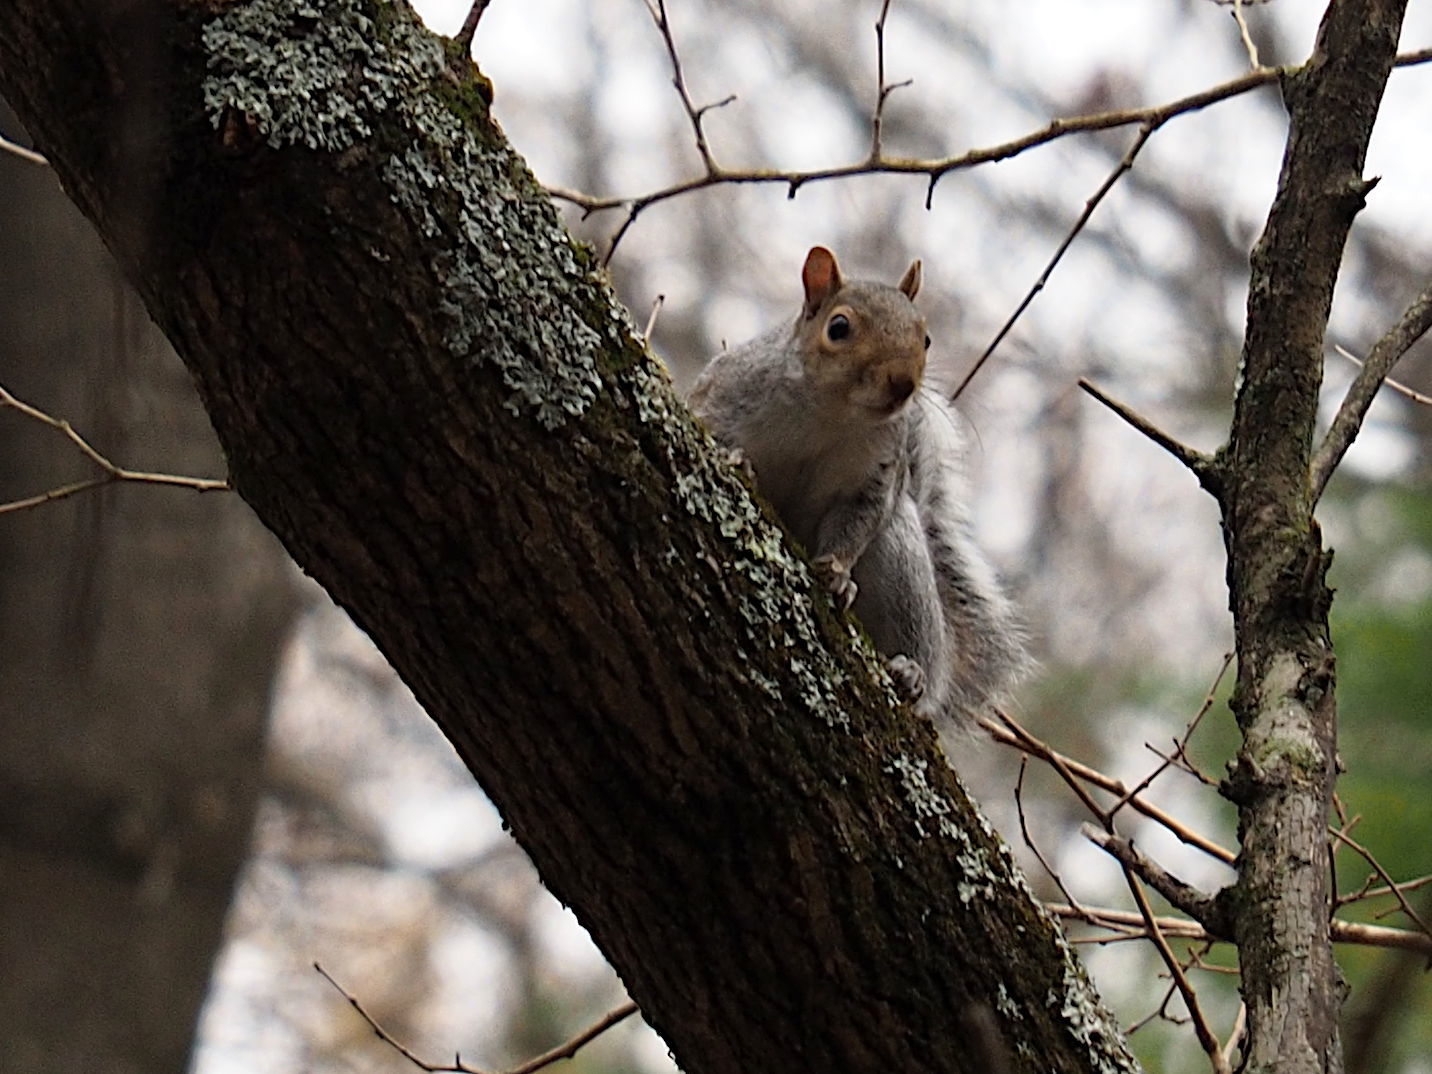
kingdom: Animalia
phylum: Chordata
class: Mammalia
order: Rodentia
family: Sciuridae
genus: Sciurus
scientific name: Sciurus carolinensis
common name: Eastern gray squirrel
